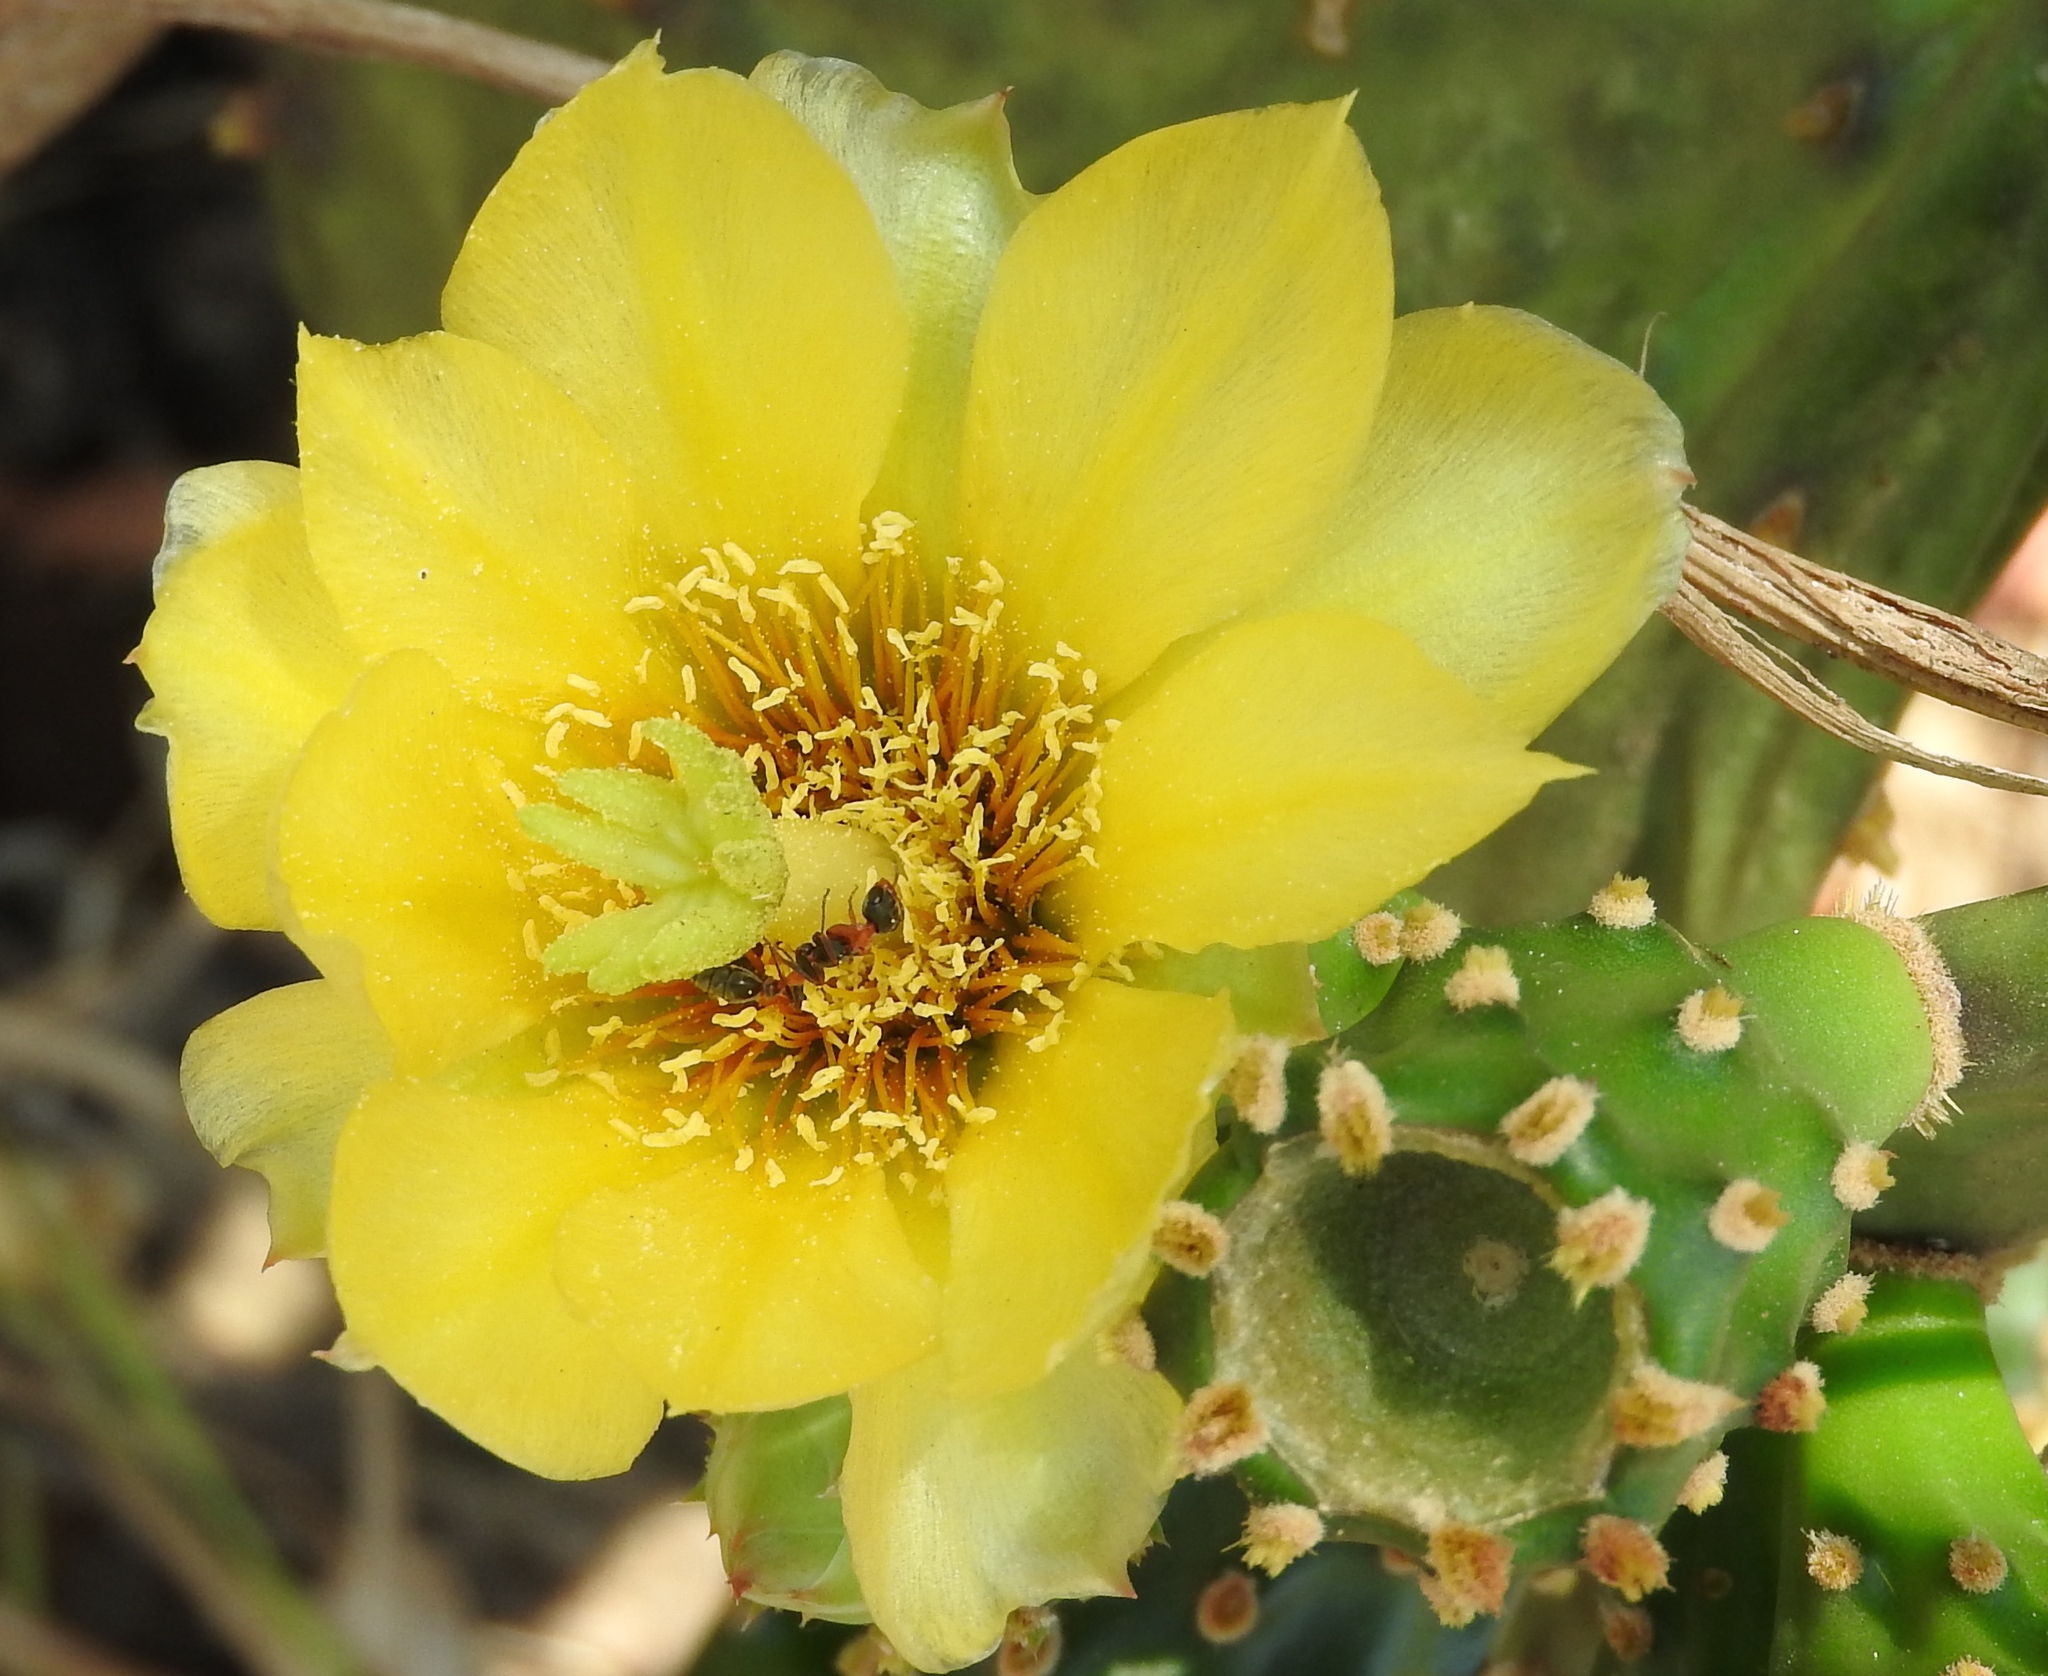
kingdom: Plantae
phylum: Tracheophyta
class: Magnoliopsida
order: Caryophyllales
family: Cactaceae
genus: Opuntia
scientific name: Opuntia
